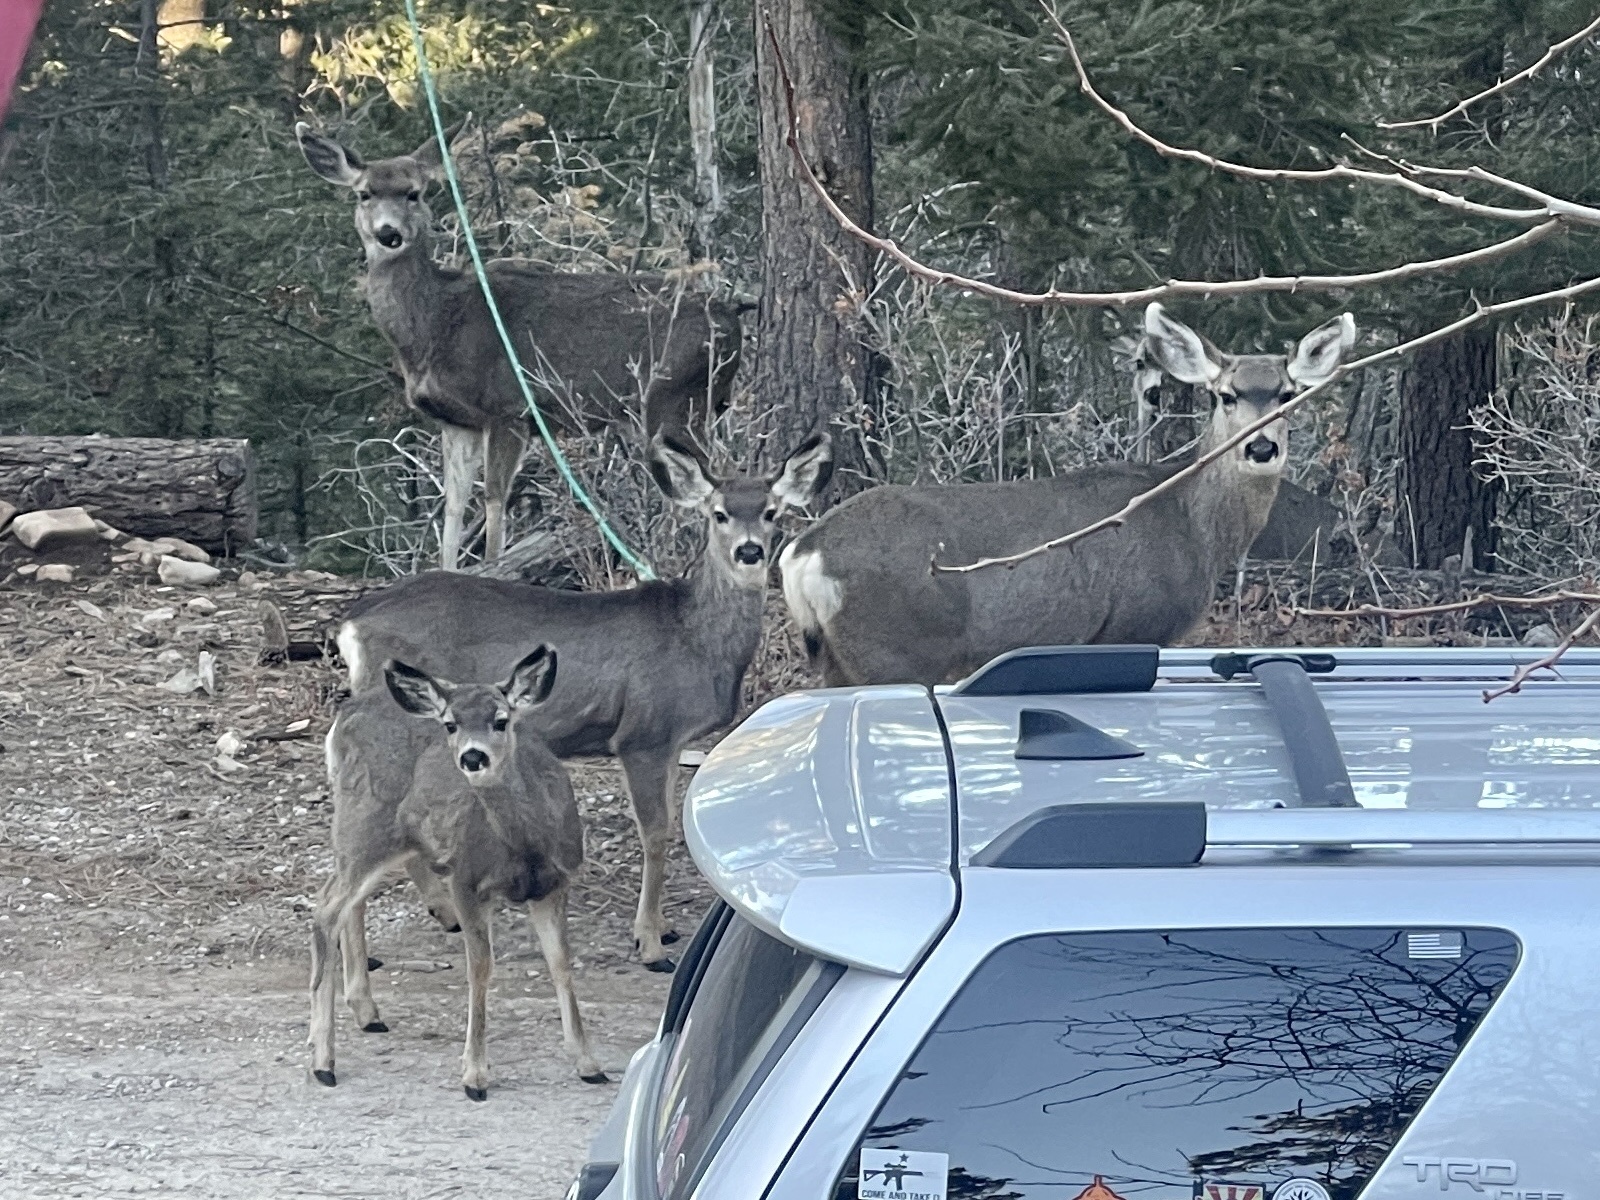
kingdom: Animalia
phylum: Chordata
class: Mammalia
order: Artiodactyla
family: Cervidae
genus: Odocoileus
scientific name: Odocoileus hemionus
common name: Mule deer
